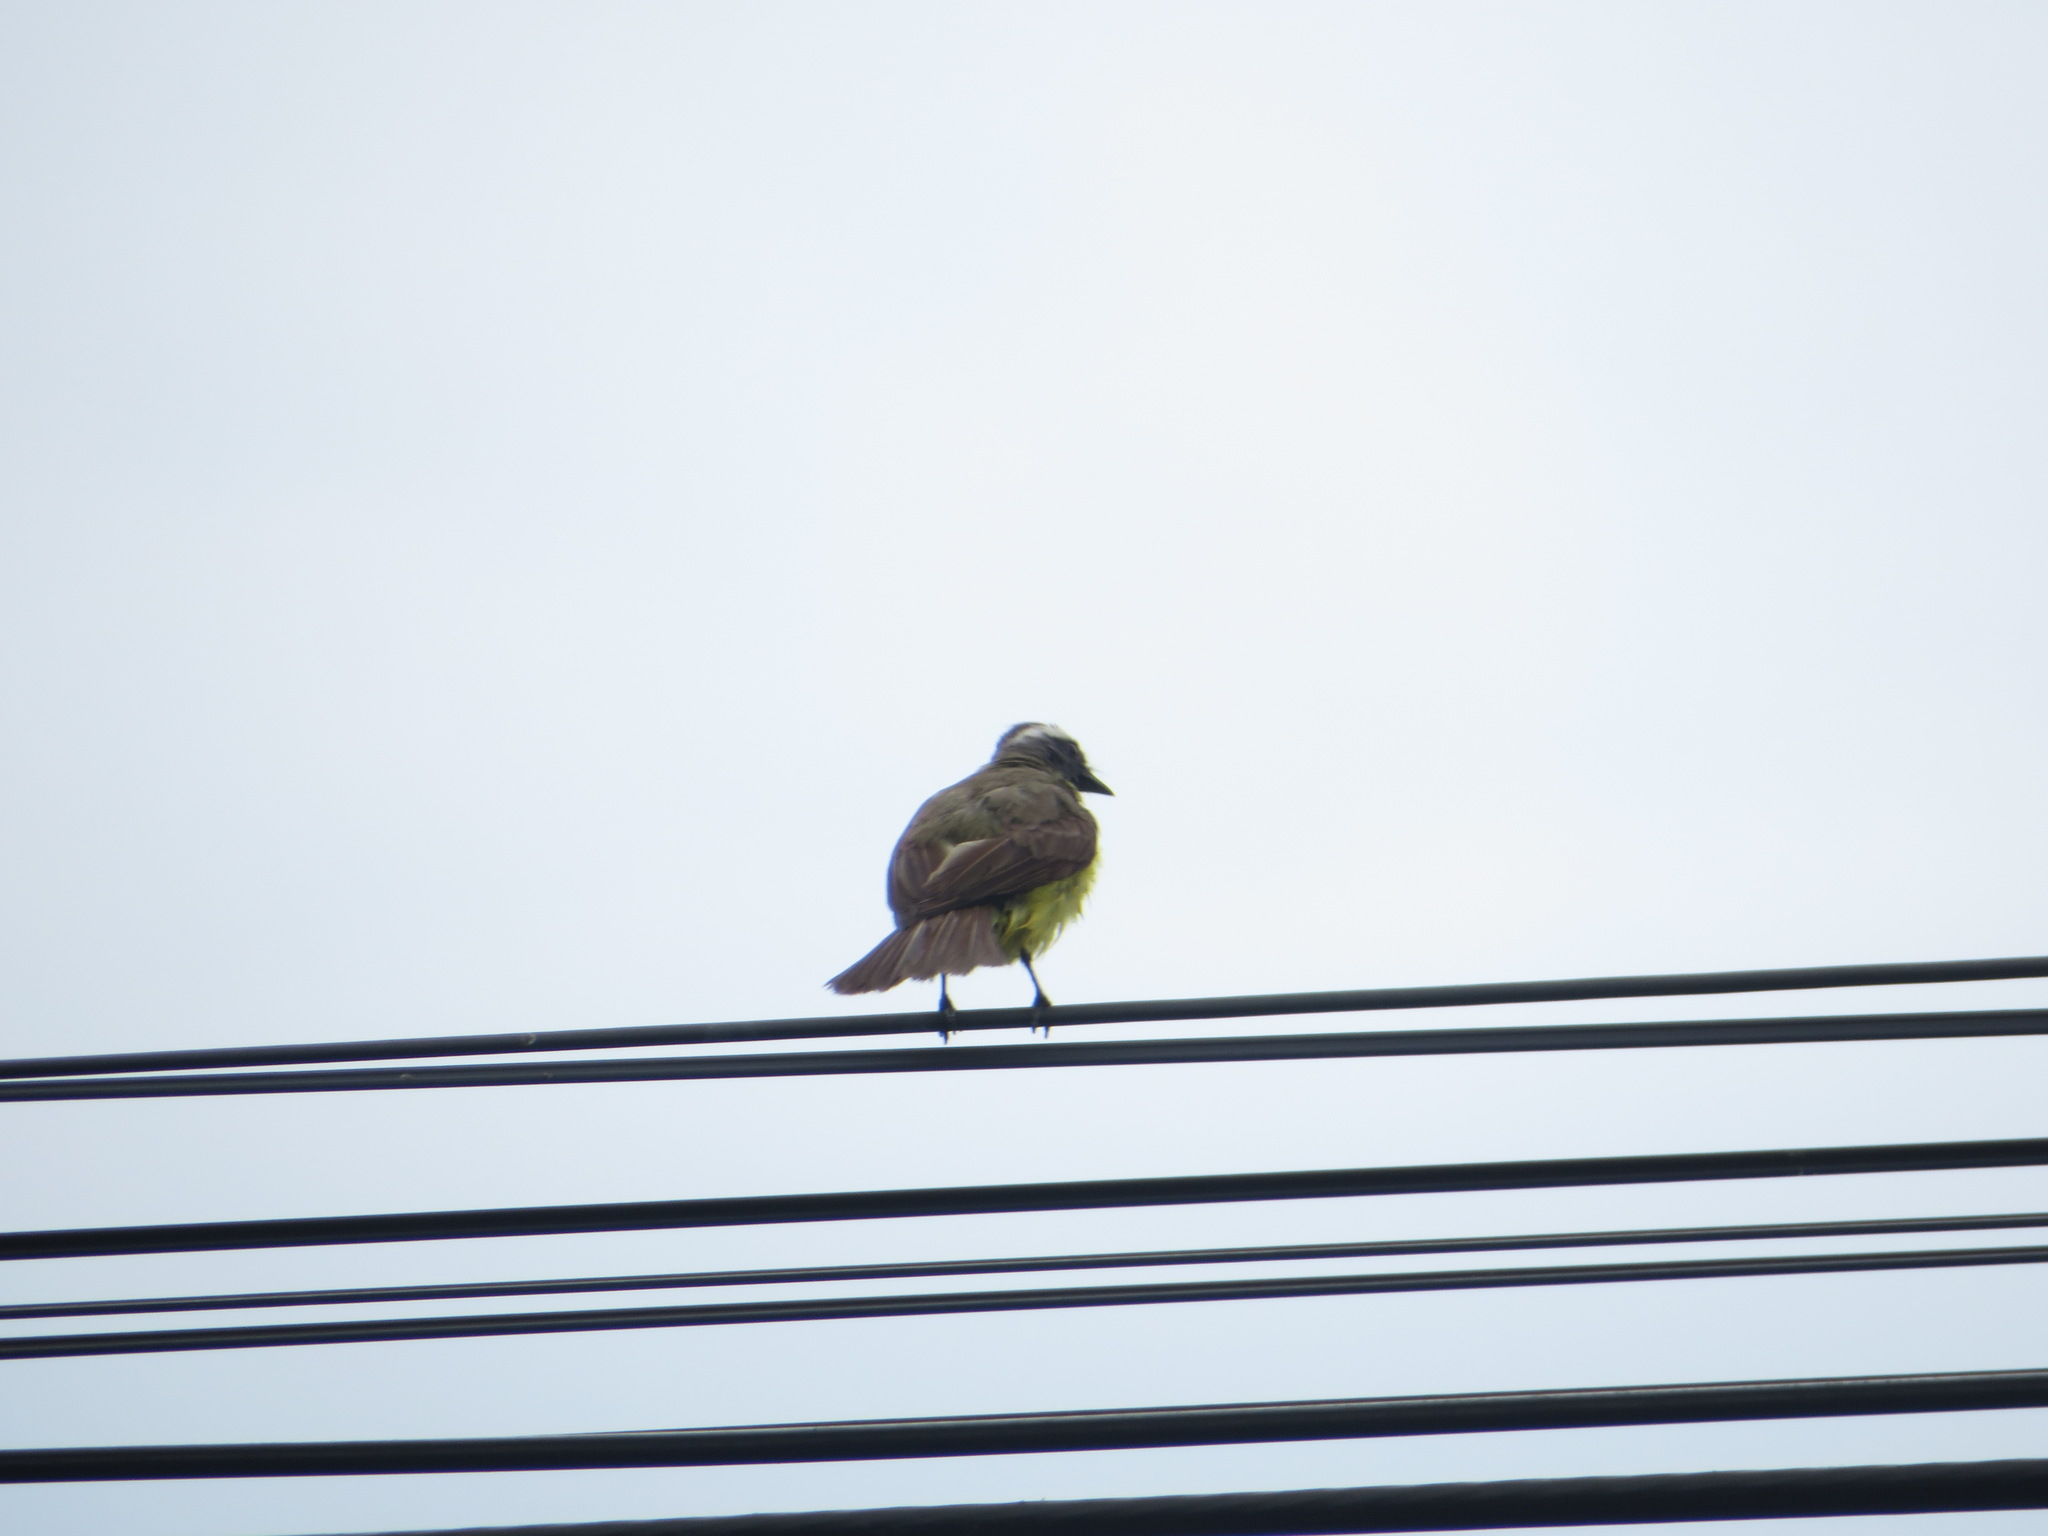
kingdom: Animalia
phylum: Chordata
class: Aves
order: Passeriformes
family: Tyrannidae
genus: Myiozetetes
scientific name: Myiozetetes similis
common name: Social flycatcher
